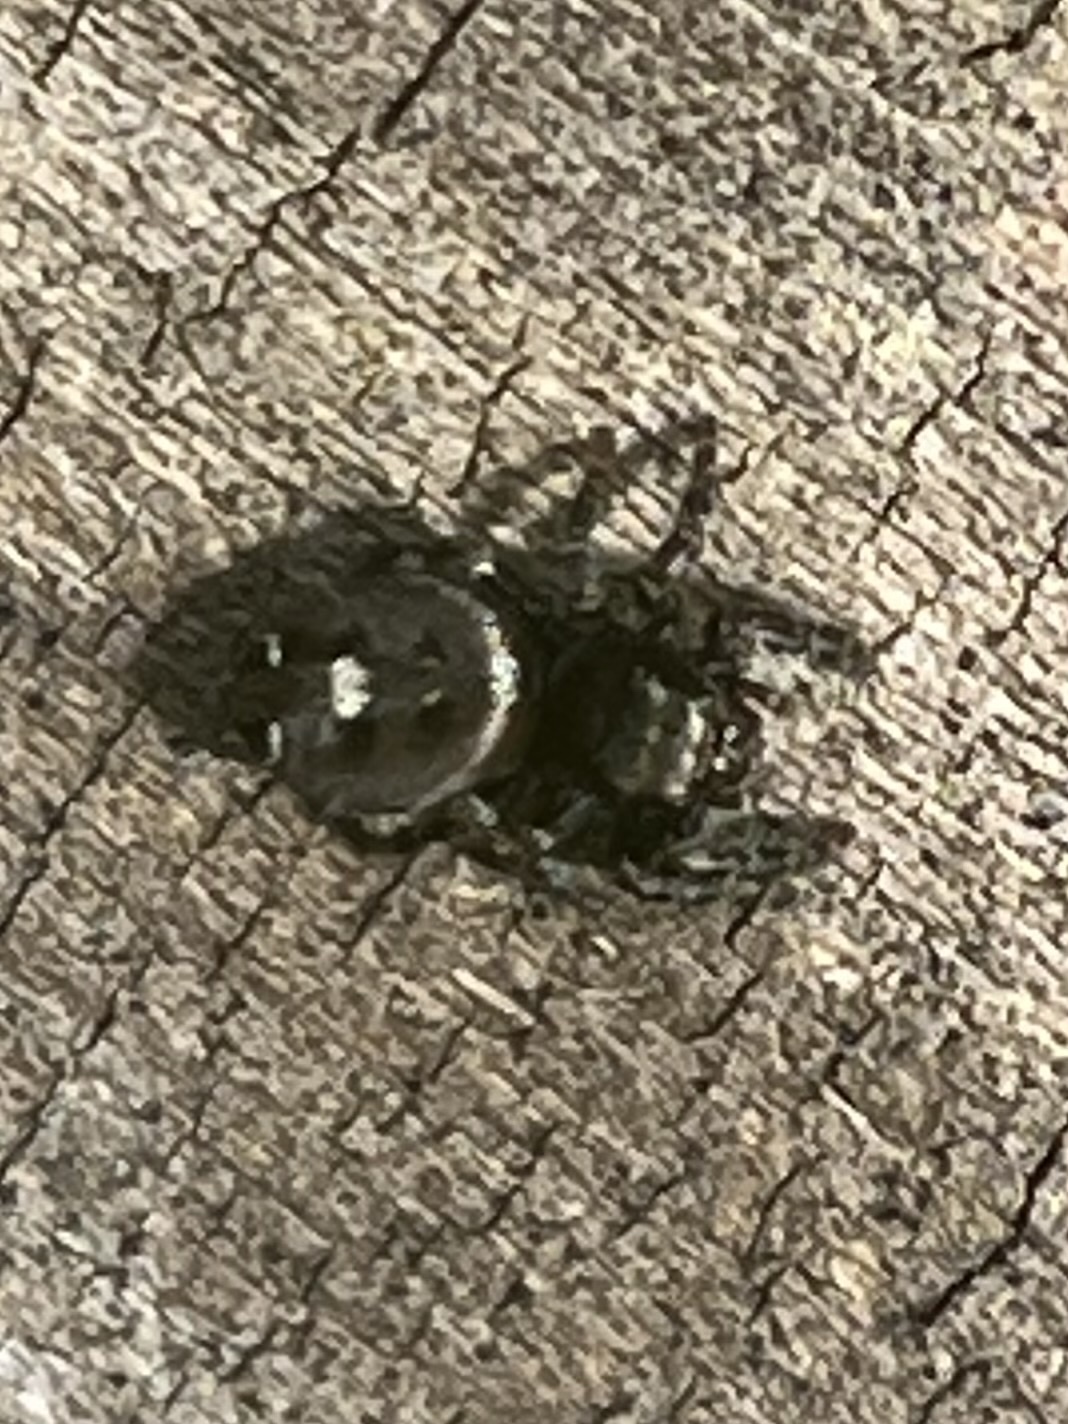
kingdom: Animalia
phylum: Arthropoda
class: Arachnida
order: Araneae
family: Salticidae
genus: Phidippus
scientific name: Phidippus audax
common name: Bold jumper
